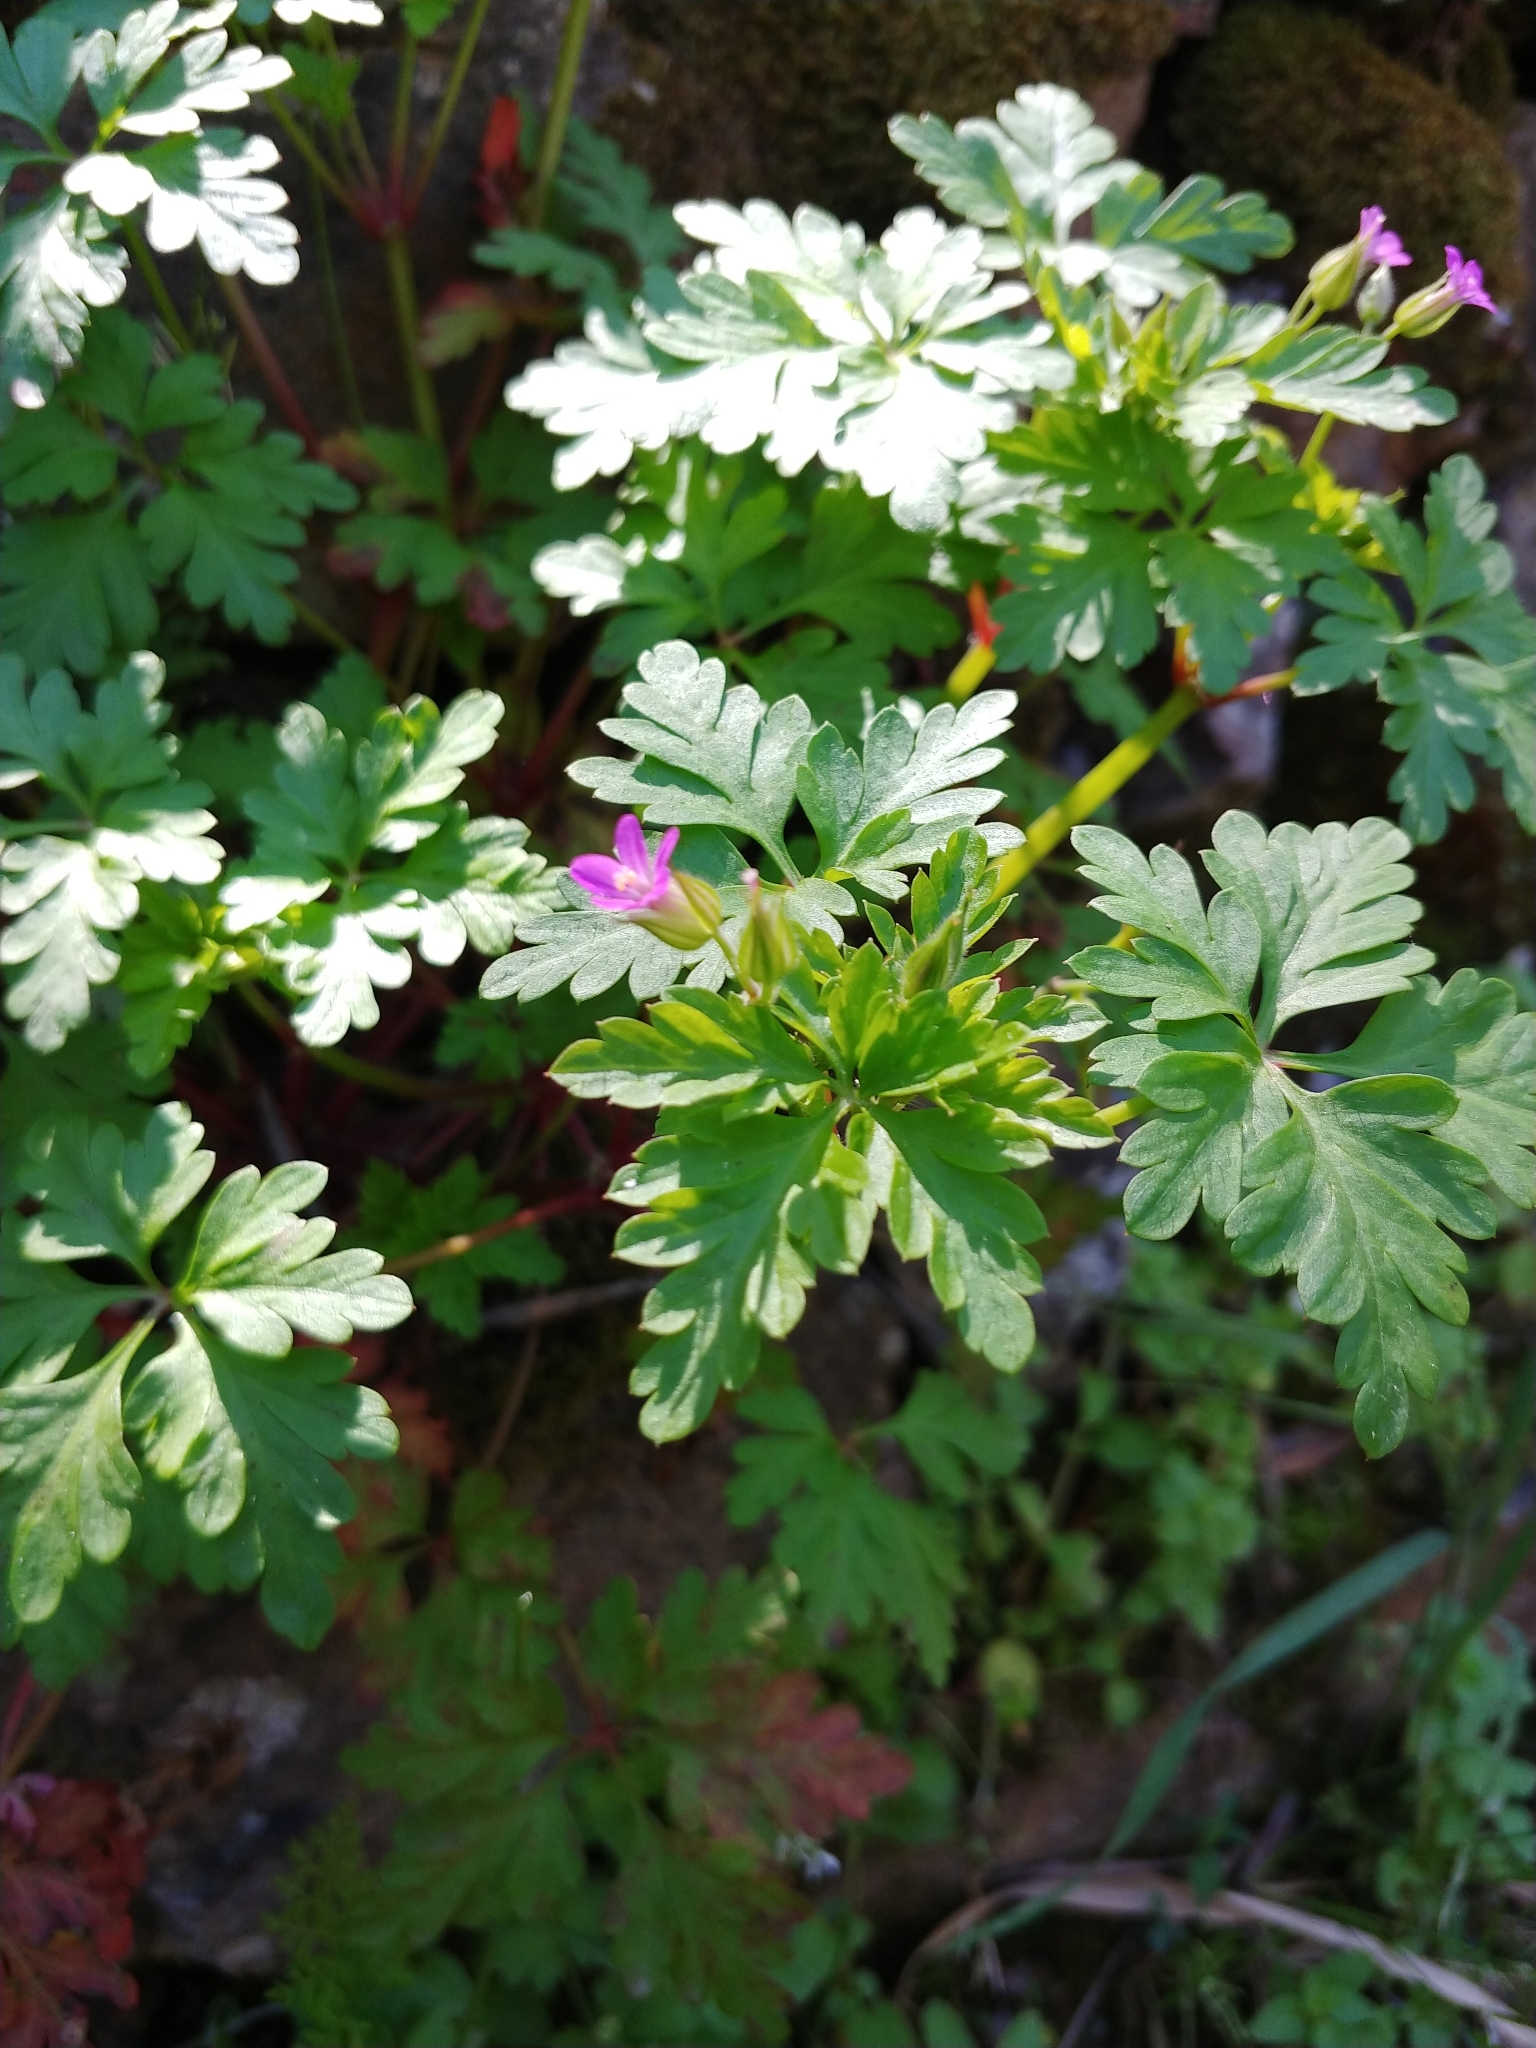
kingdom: Plantae
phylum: Tracheophyta
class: Magnoliopsida
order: Geraniales
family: Geraniaceae
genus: Geranium
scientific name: Geranium purpureum
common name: Little-robin
